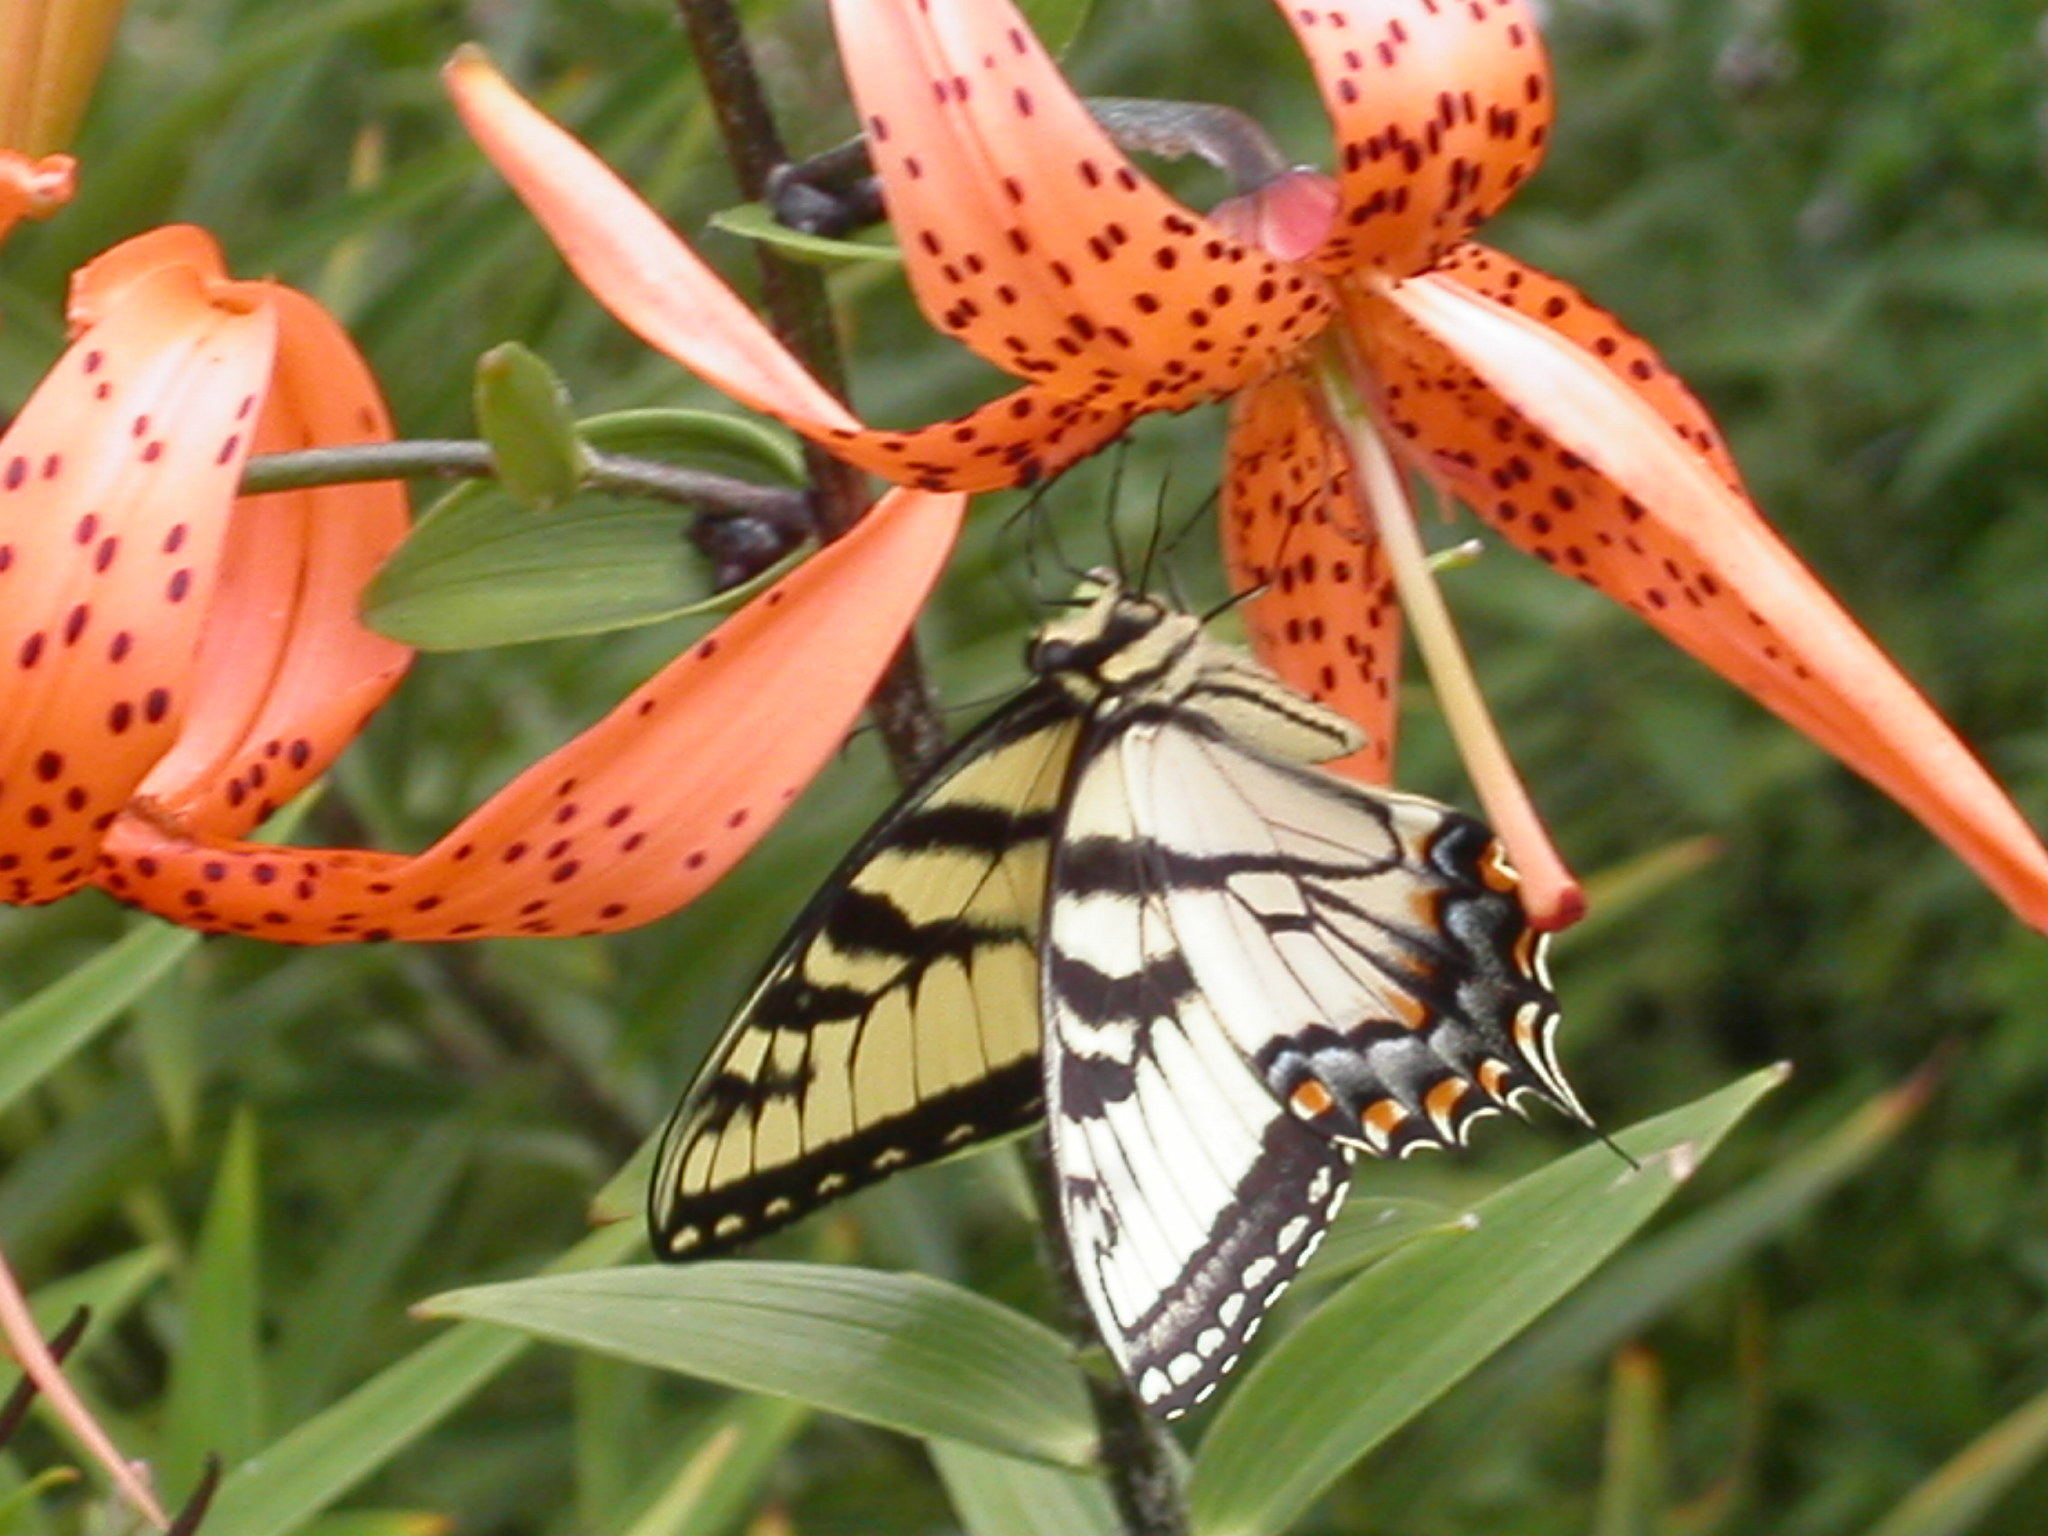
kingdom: Animalia
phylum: Arthropoda
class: Insecta
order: Lepidoptera
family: Papilionidae
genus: Papilio
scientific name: Papilio glaucus
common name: Tiger swallowtail
